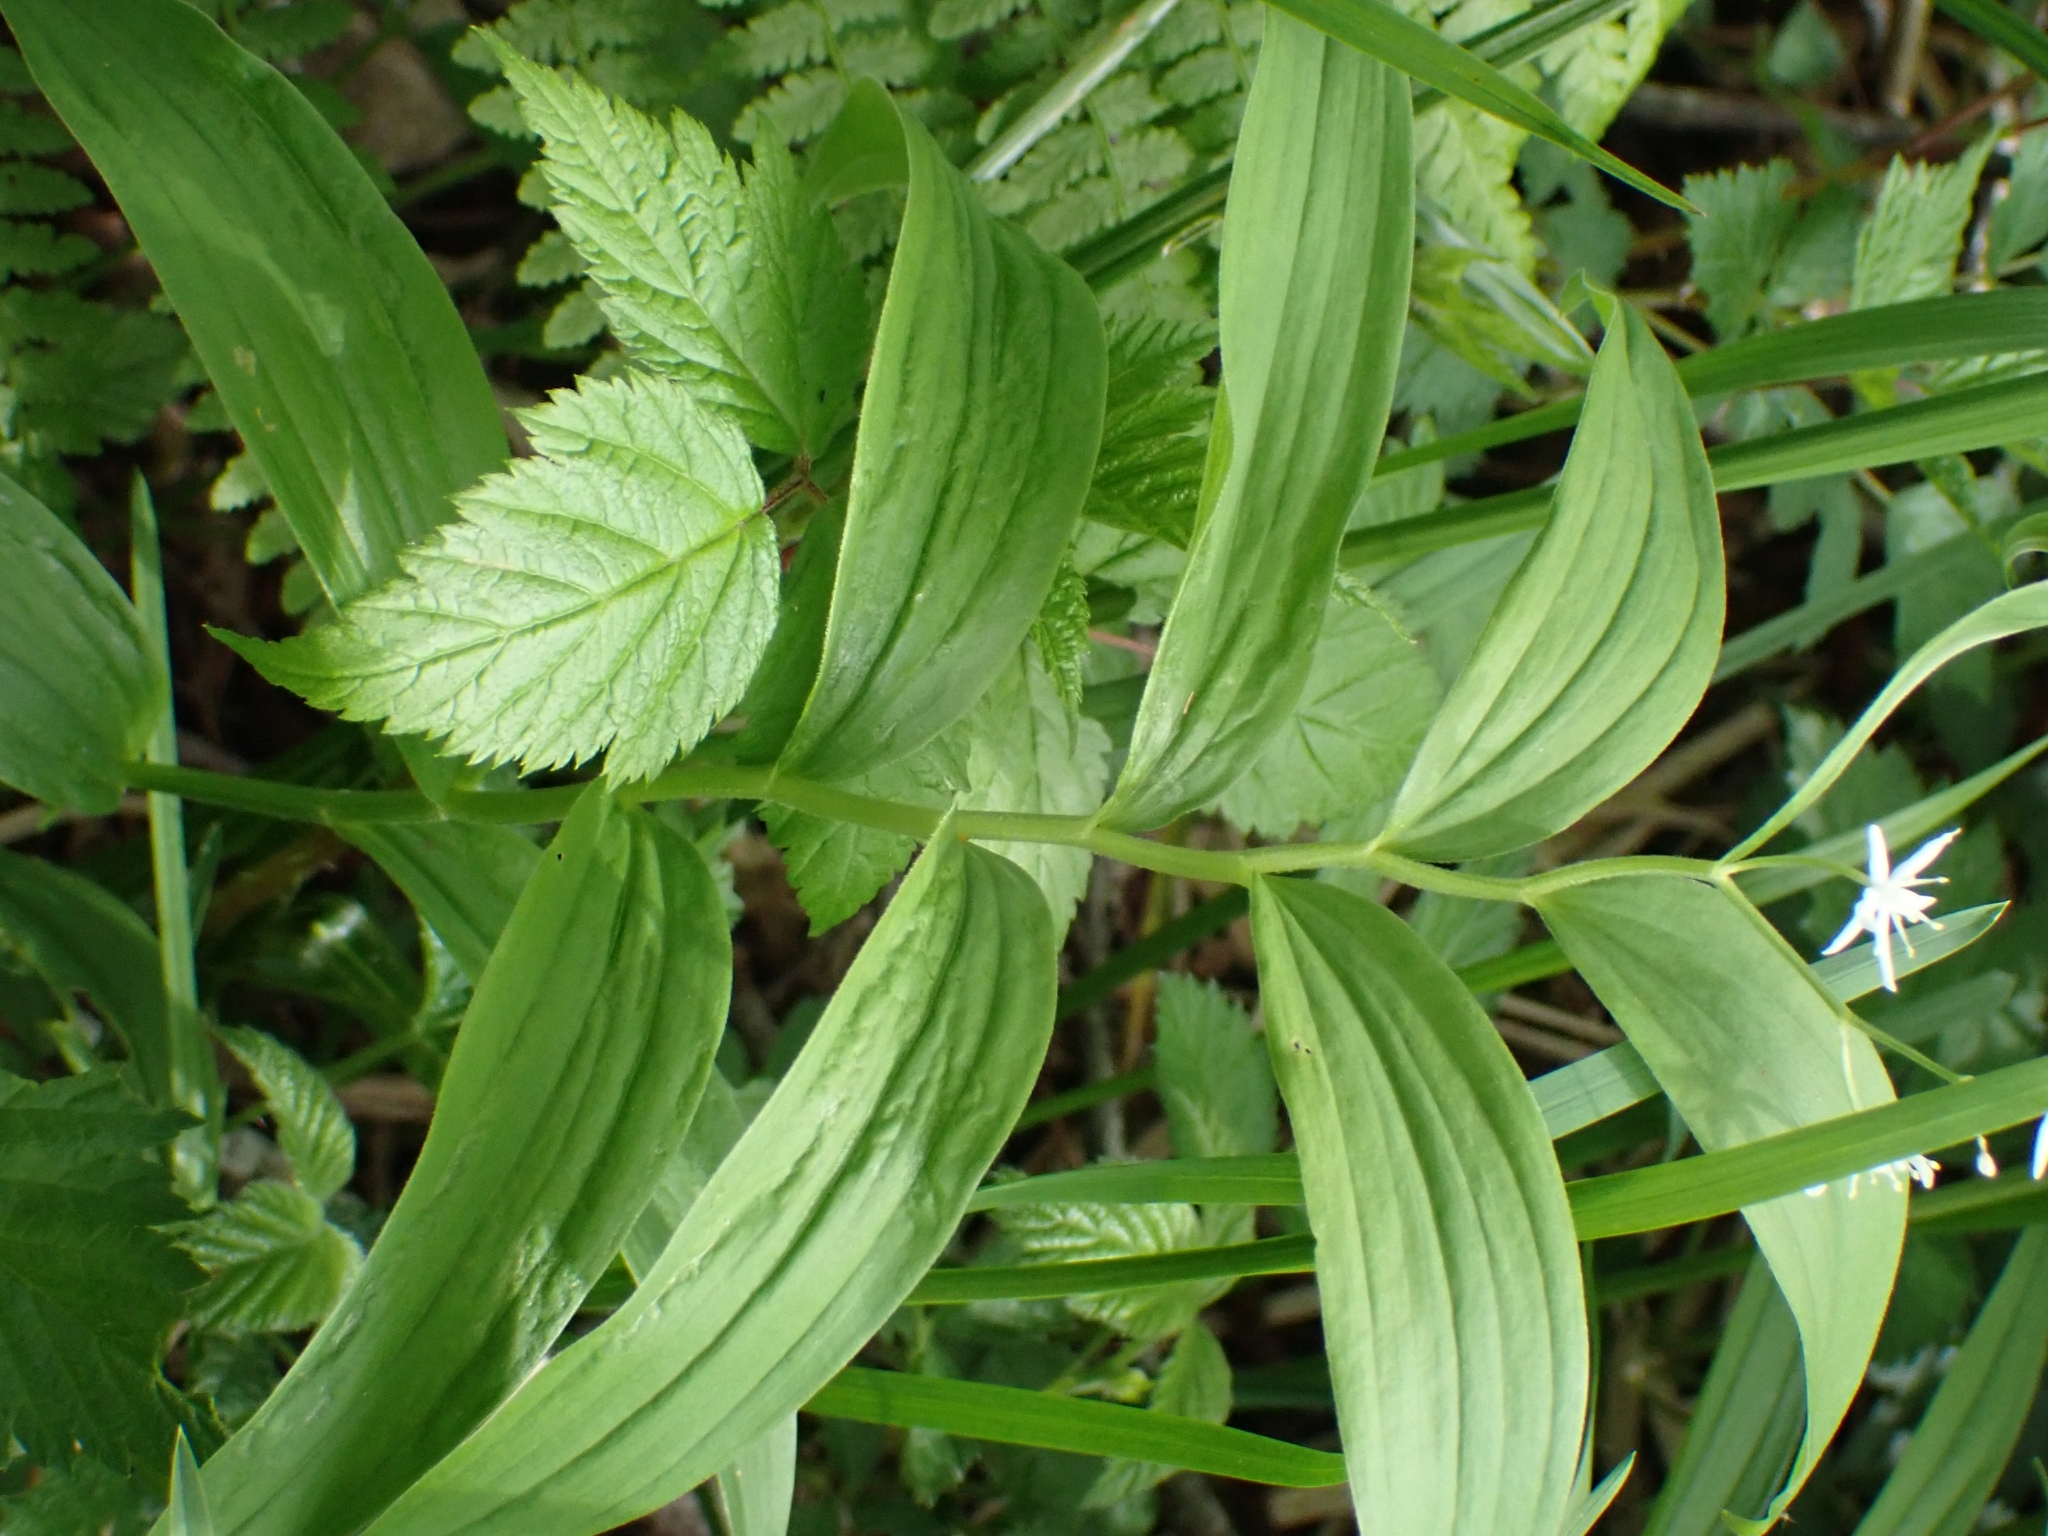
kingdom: Plantae
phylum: Tracheophyta
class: Liliopsida
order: Asparagales
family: Asparagaceae
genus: Maianthemum
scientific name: Maianthemum stellatum
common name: Little false solomon's seal
